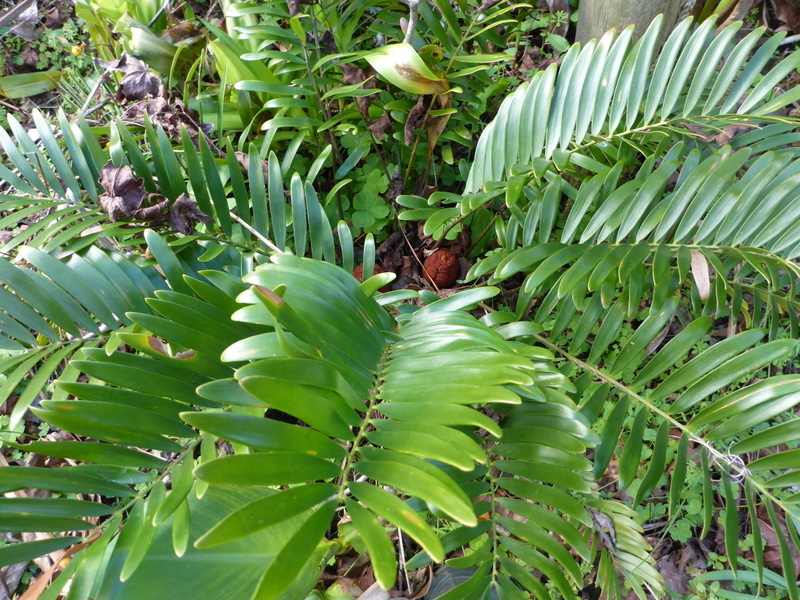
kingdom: Plantae
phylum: Tracheophyta
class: Cycadopsida
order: Cycadales
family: Zamiaceae
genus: Zamia
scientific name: Zamia integrifolia
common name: Florida arrowroot
